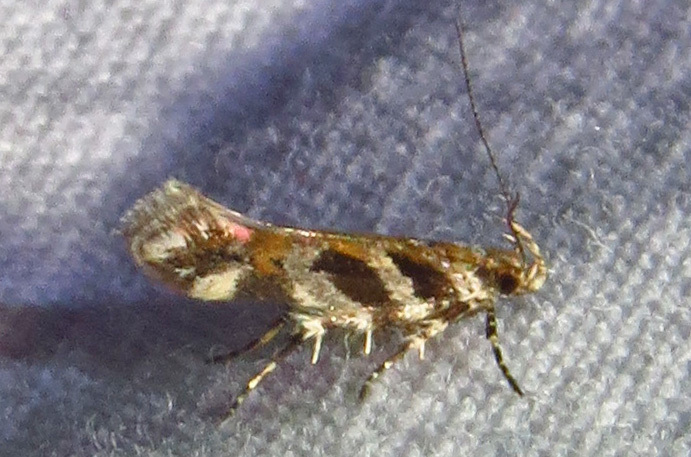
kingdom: Animalia
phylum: Arthropoda
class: Insecta
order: Lepidoptera
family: Gelechiidae
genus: Aristotelia
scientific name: Aristotelia roseosuffusella
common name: Pink-washed aristotelia moth
